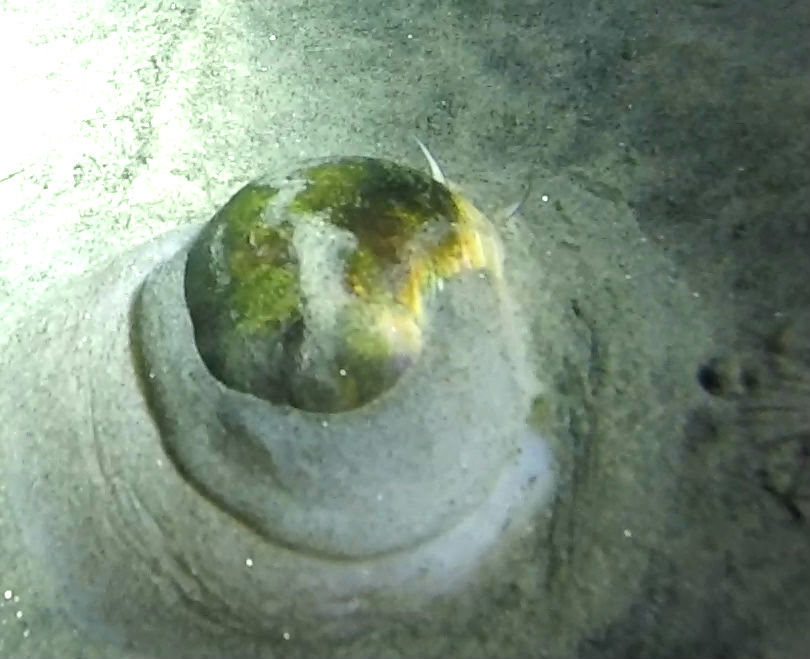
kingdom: Animalia
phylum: Mollusca
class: Gastropoda
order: Littorinimorpha
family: Naticidae
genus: Neverita
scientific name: Neverita lewisii
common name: Lewis' moonsnail
